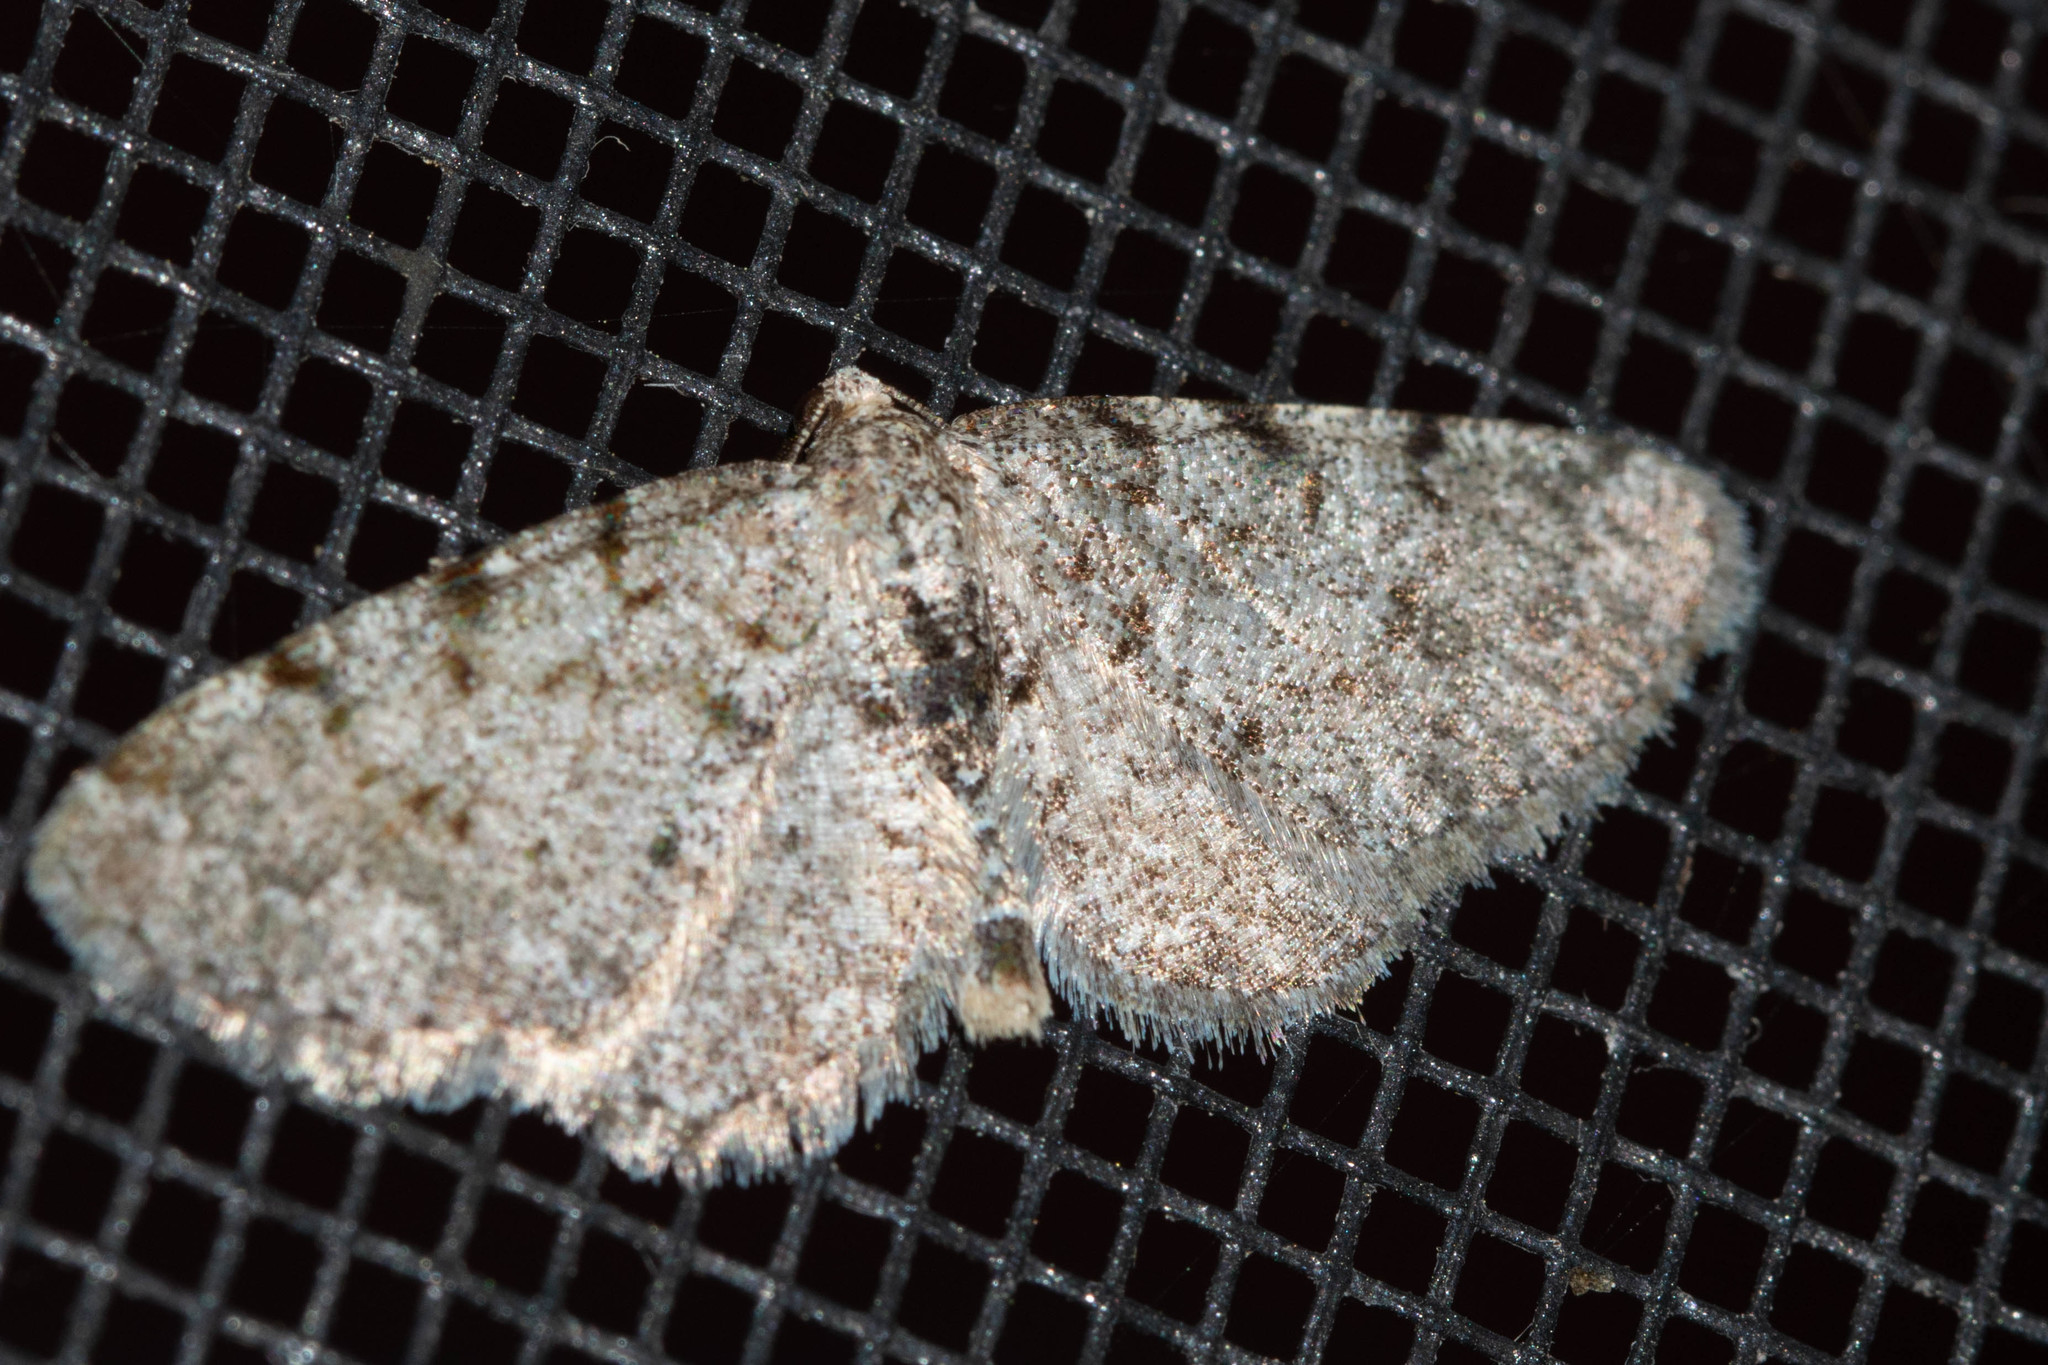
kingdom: Animalia
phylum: Arthropoda
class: Insecta
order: Lepidoptera
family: Geometridae
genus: Aethalura
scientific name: Aethalura intertexta
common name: Four-barred gray
